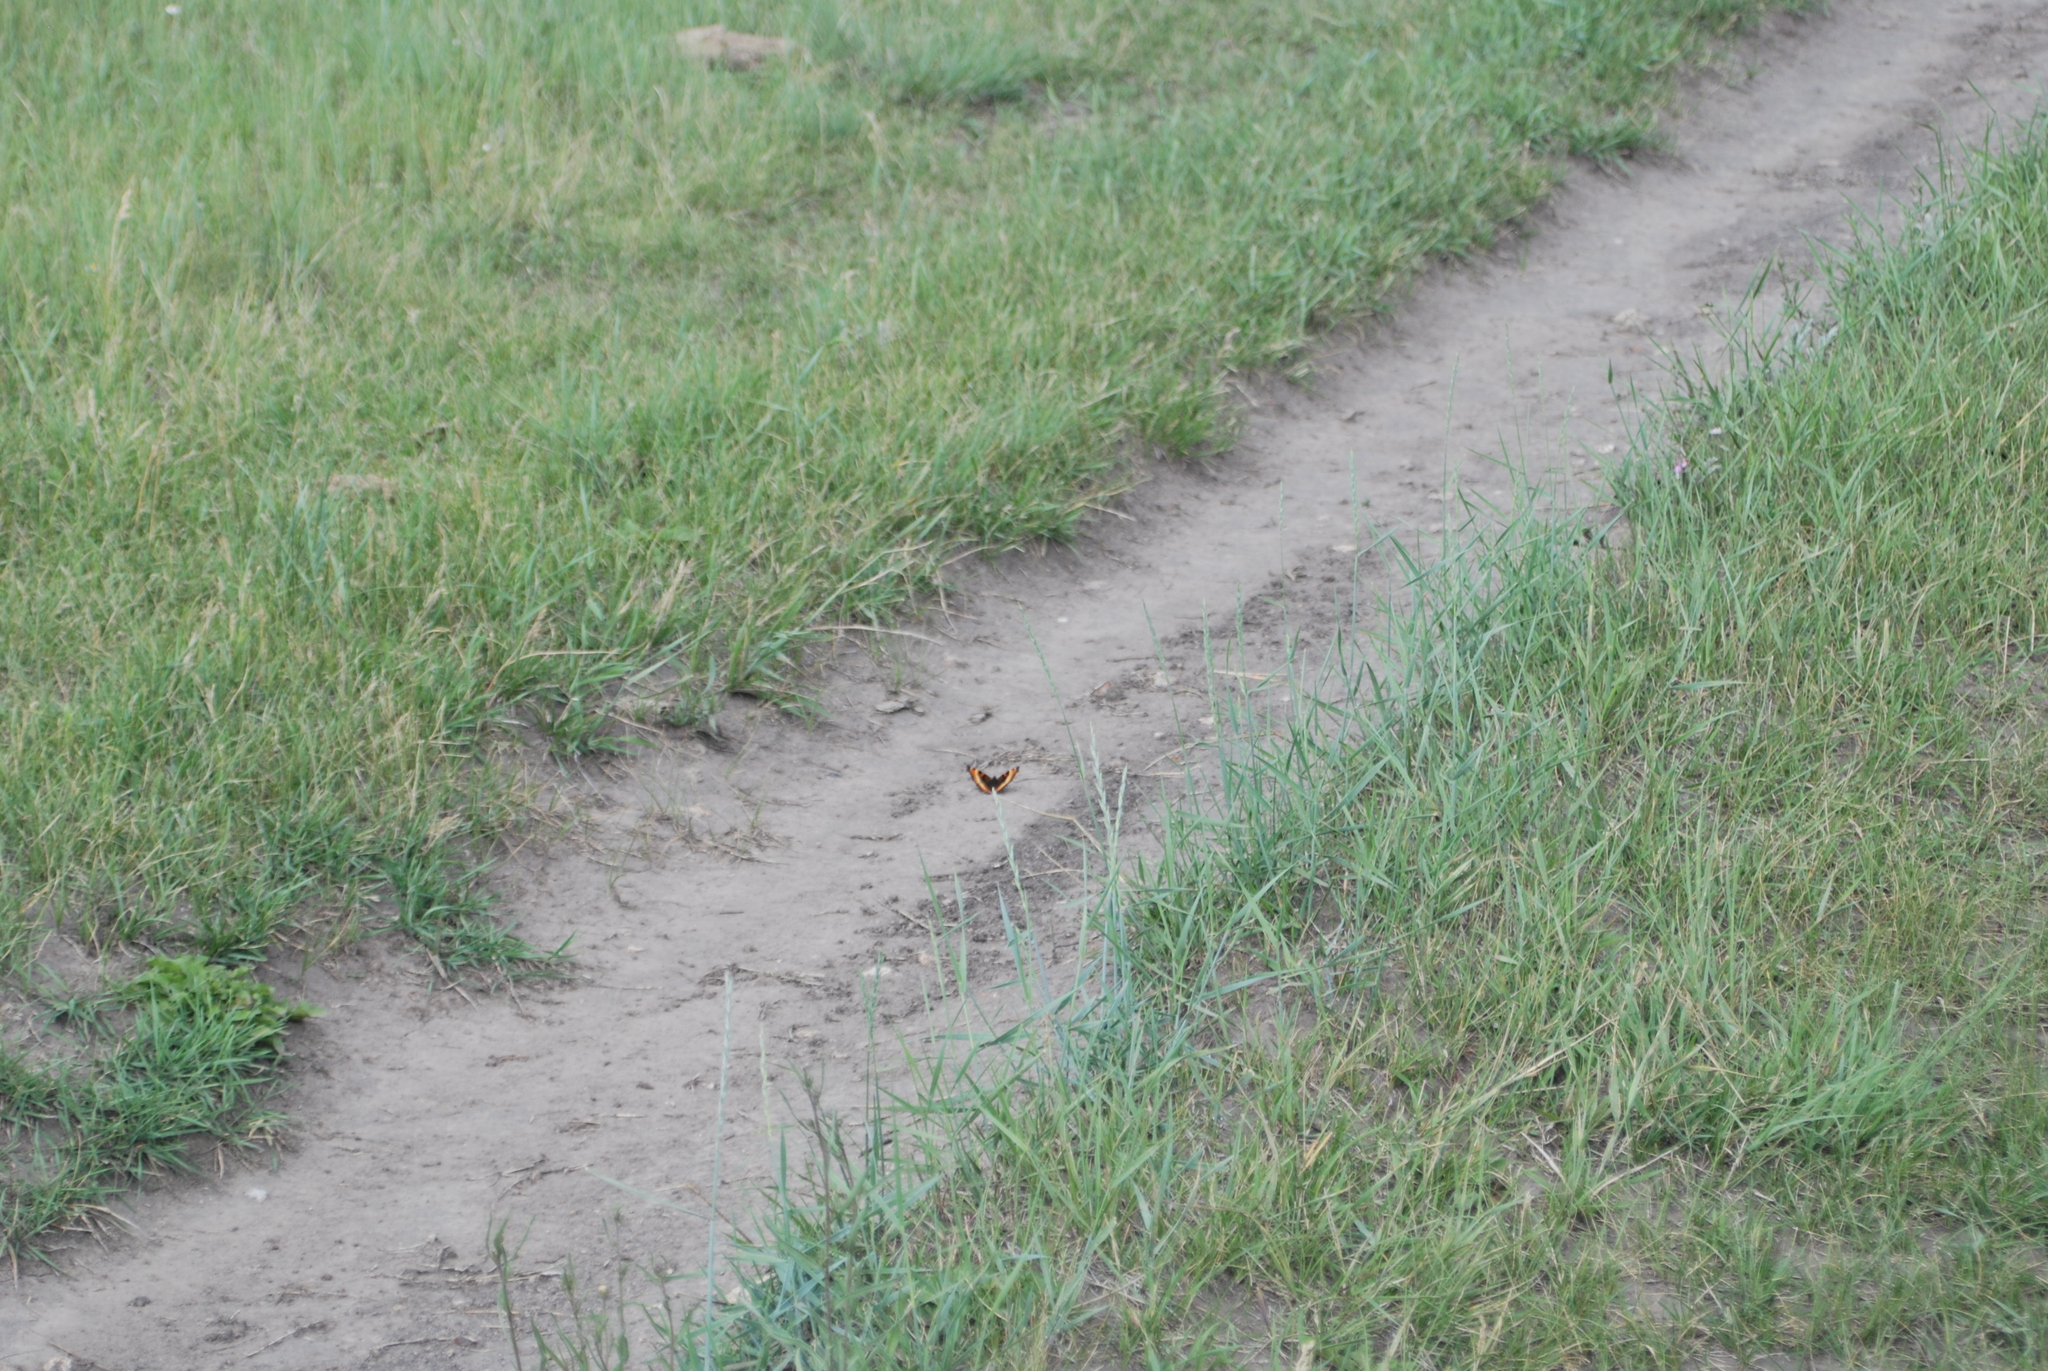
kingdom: Animalia
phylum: Arthropoda
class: Insecta
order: Lepidoptera
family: Nymphalidae
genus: Aglais
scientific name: Aglais milberti
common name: Milbert's tortoiseshell
